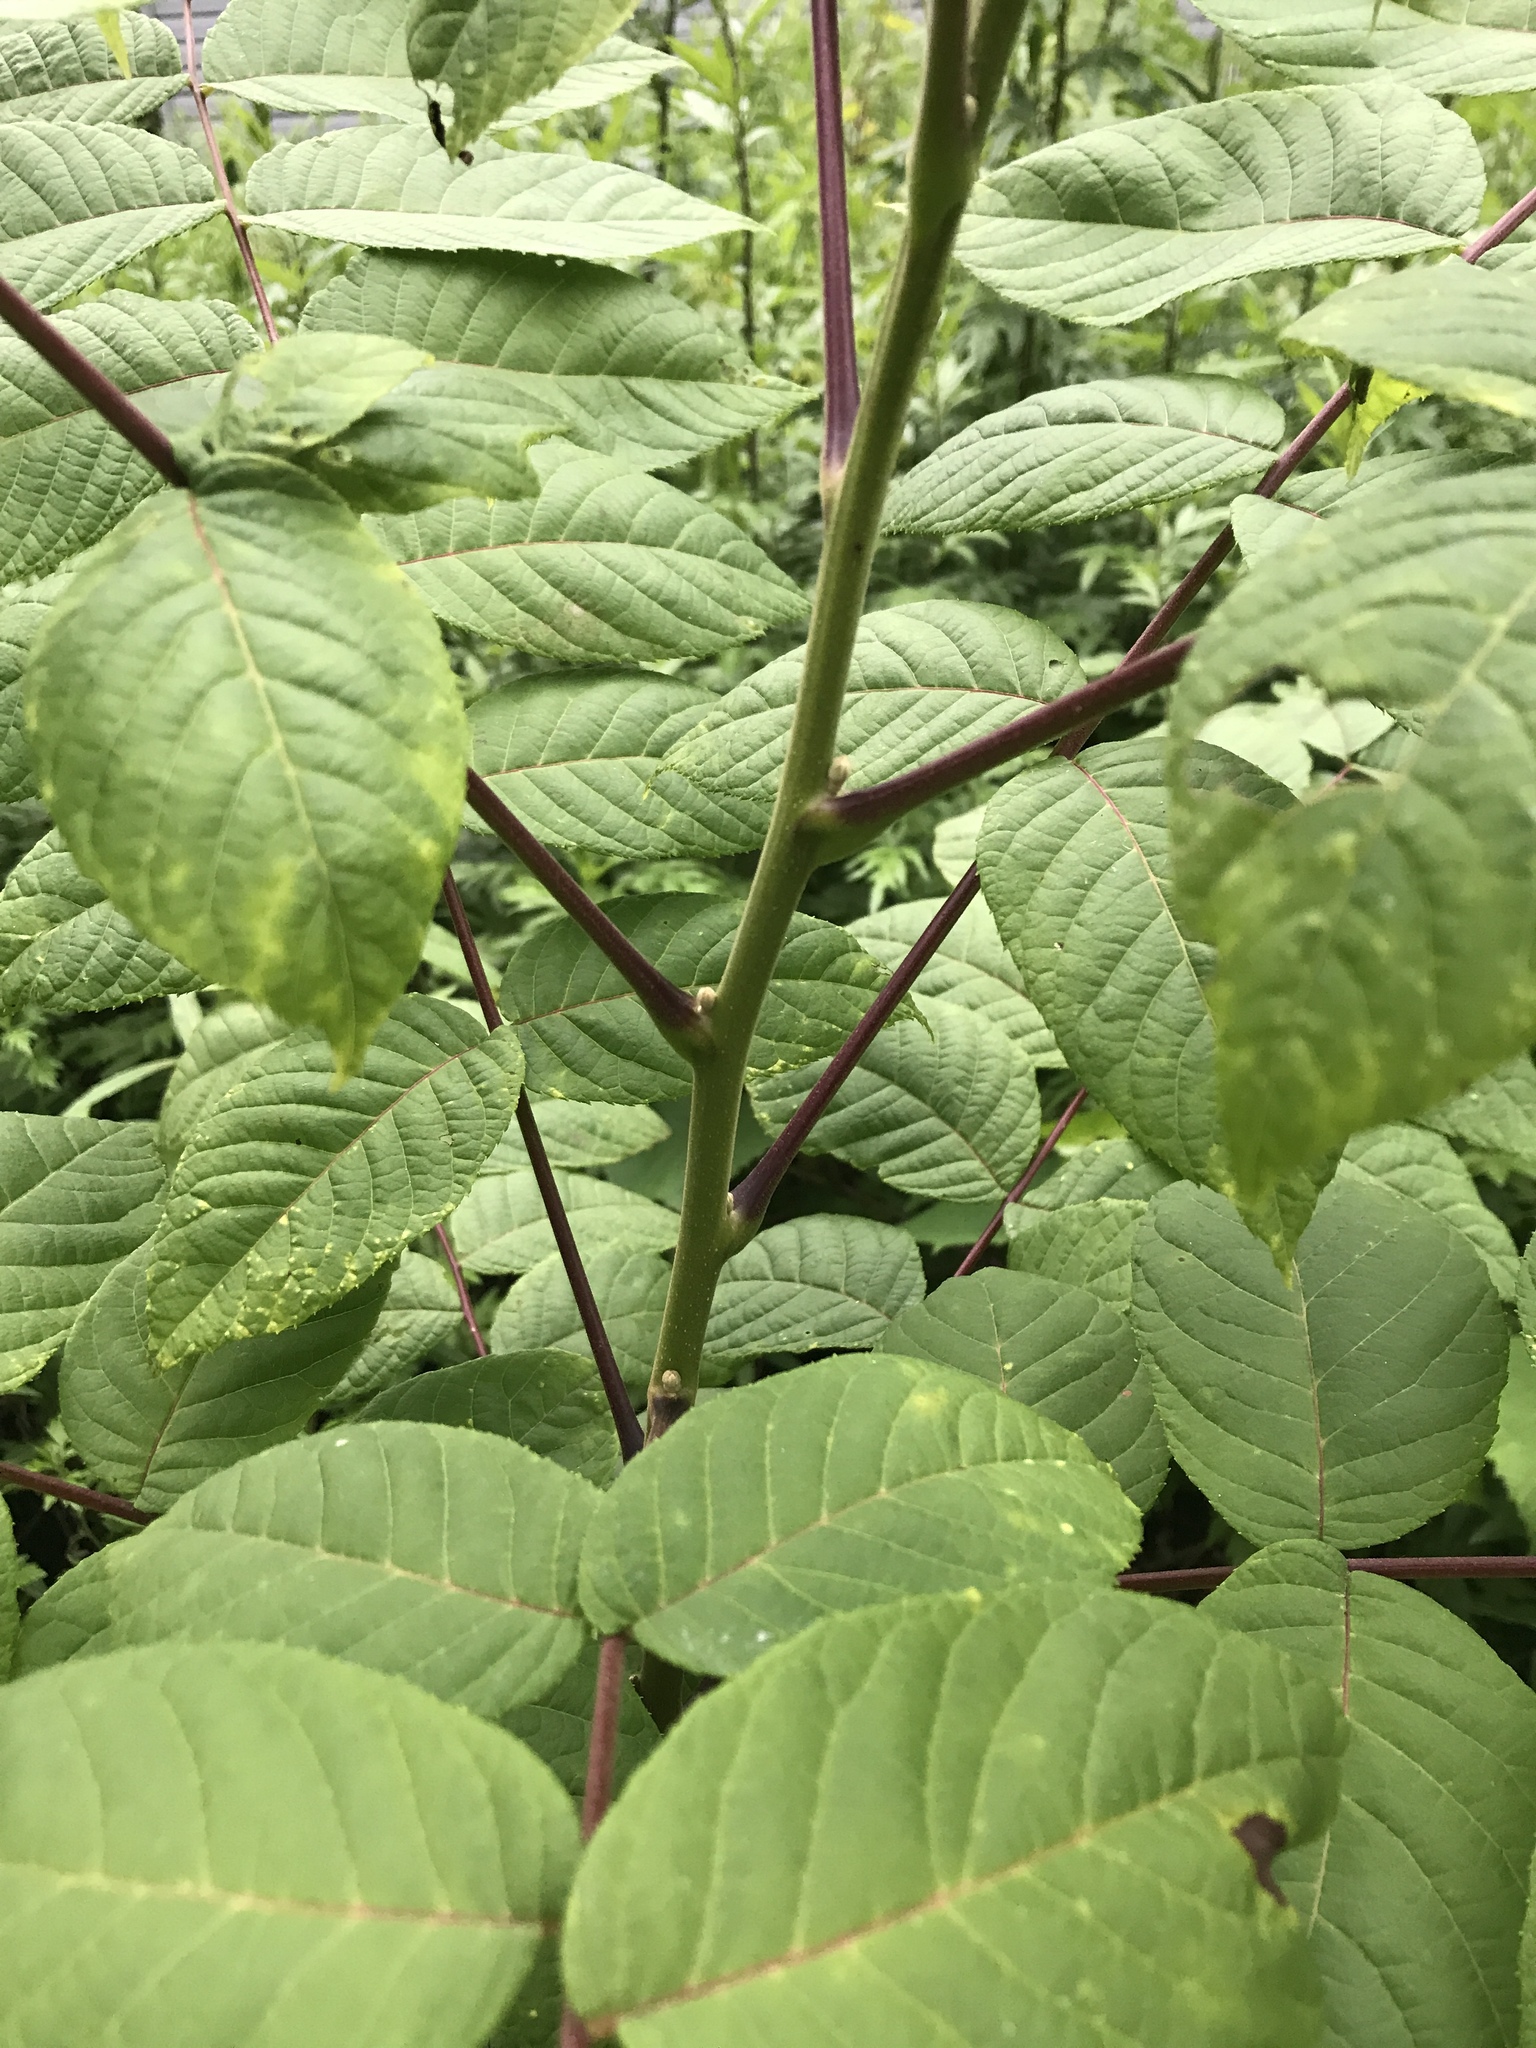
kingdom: Plantae
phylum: Tracheophyta
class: Magnoliopsida
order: Fagales
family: Juglandaceae
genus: Juglans
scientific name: Juglans nigra
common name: Black walnut
